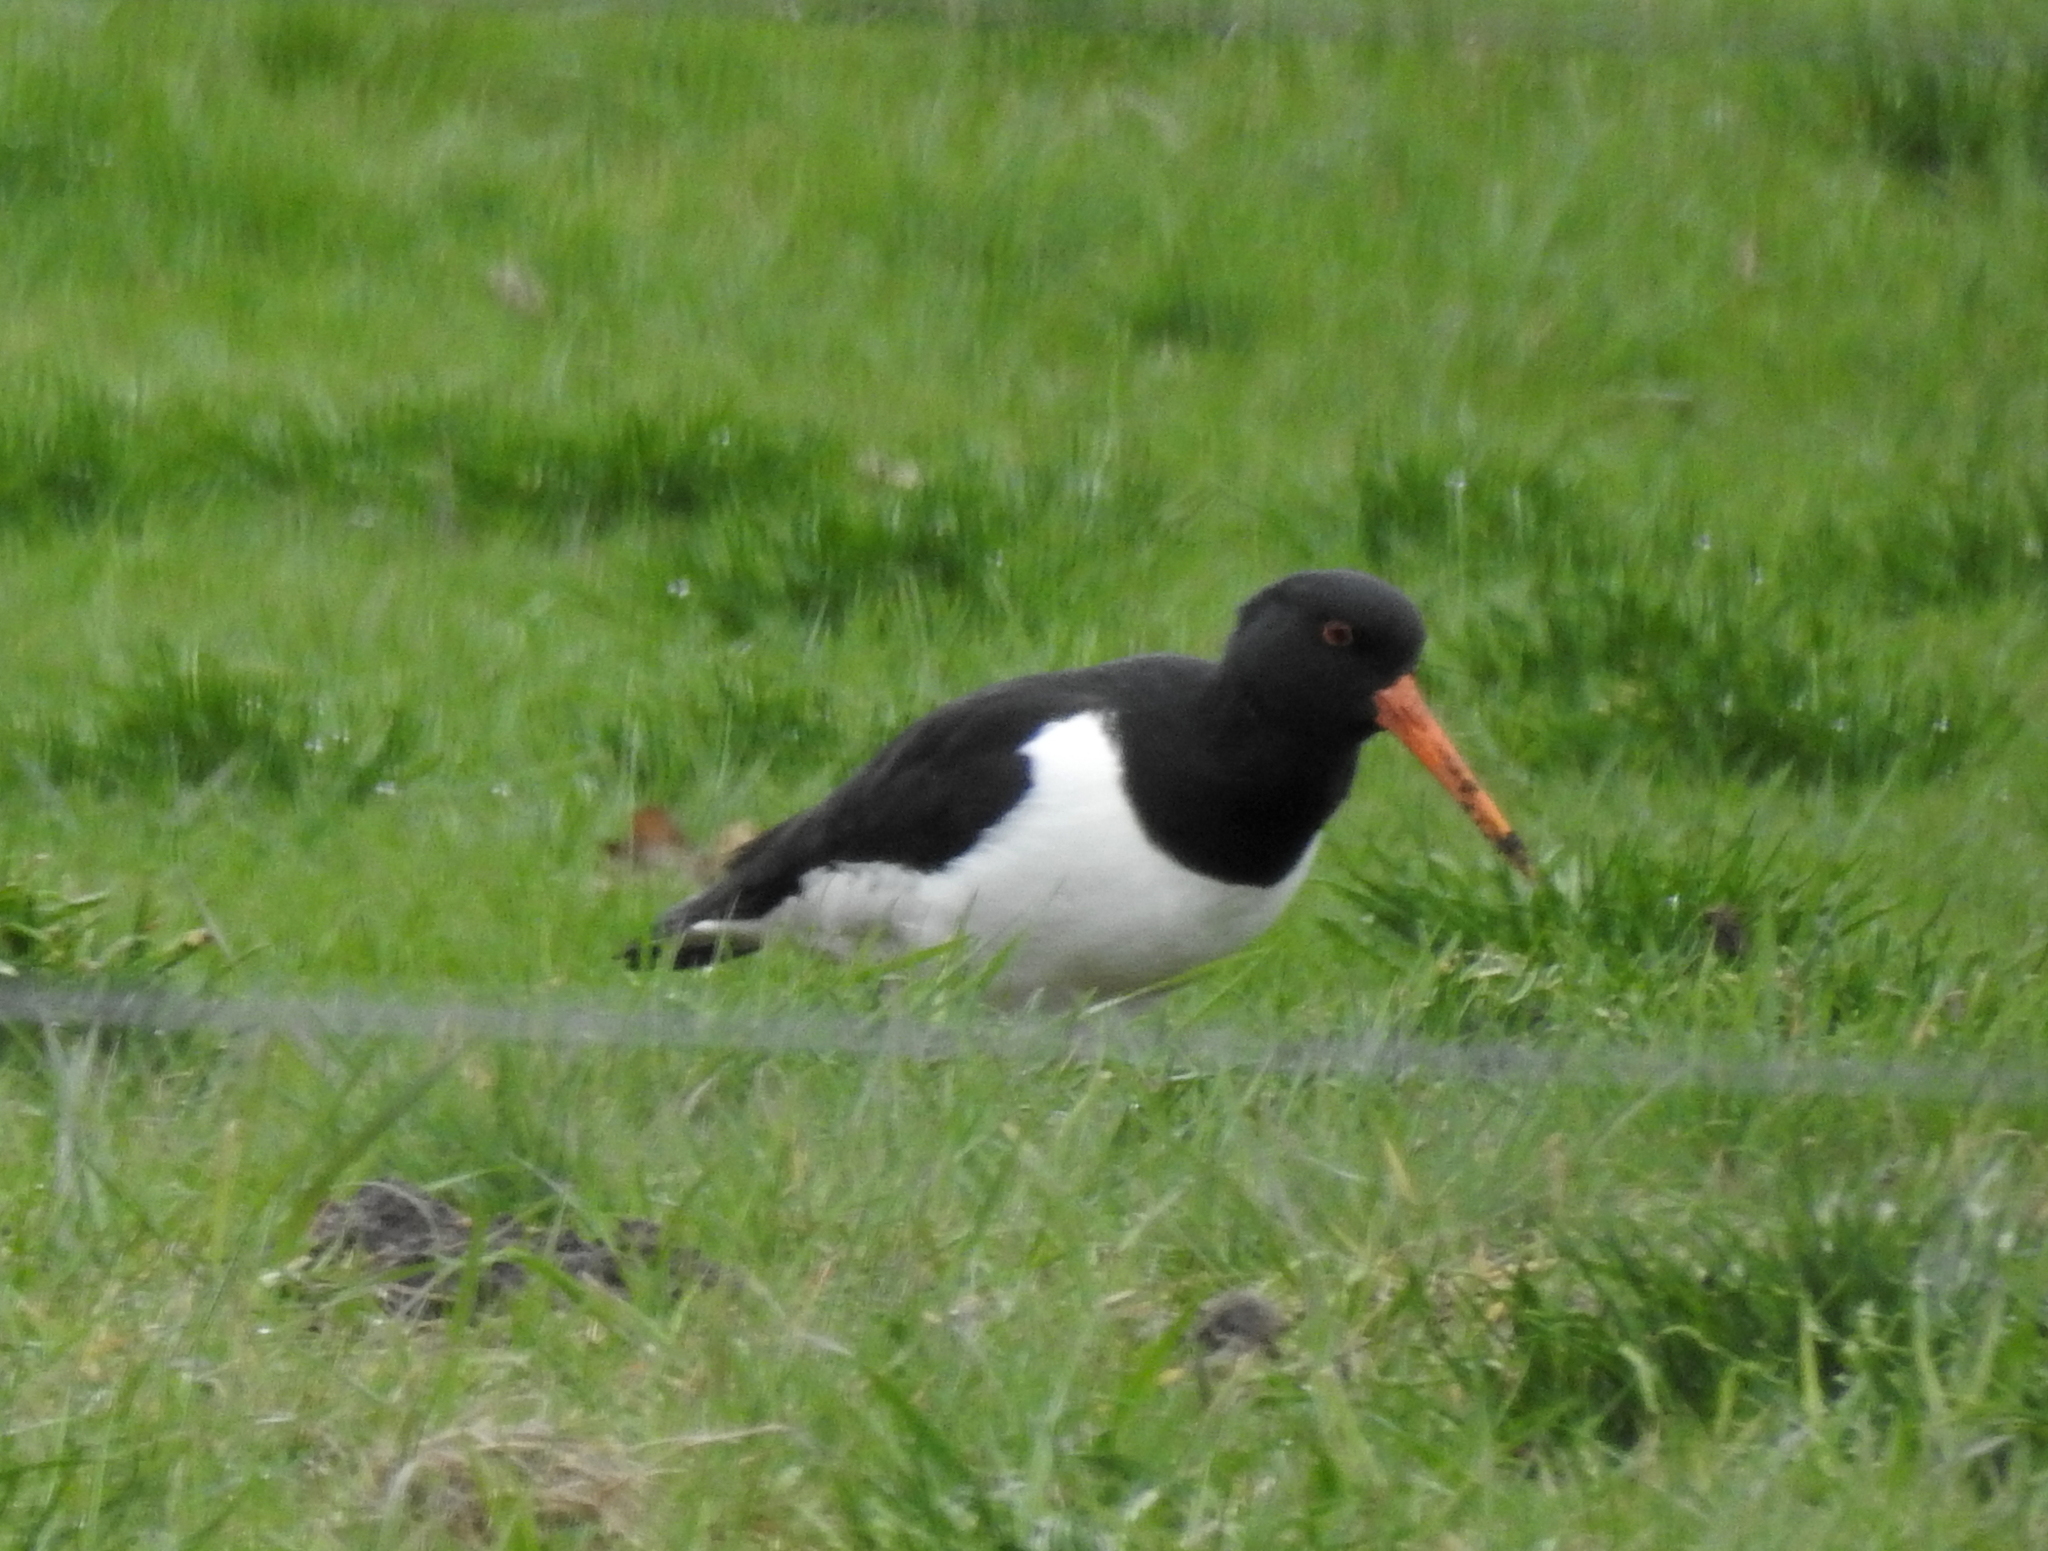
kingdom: Animalia
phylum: Chordata
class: Aves
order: Charadriiformes
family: Haematopodidae
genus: Haematopus
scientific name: Haematopus ostralegus
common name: Eurasian oystercatcher
